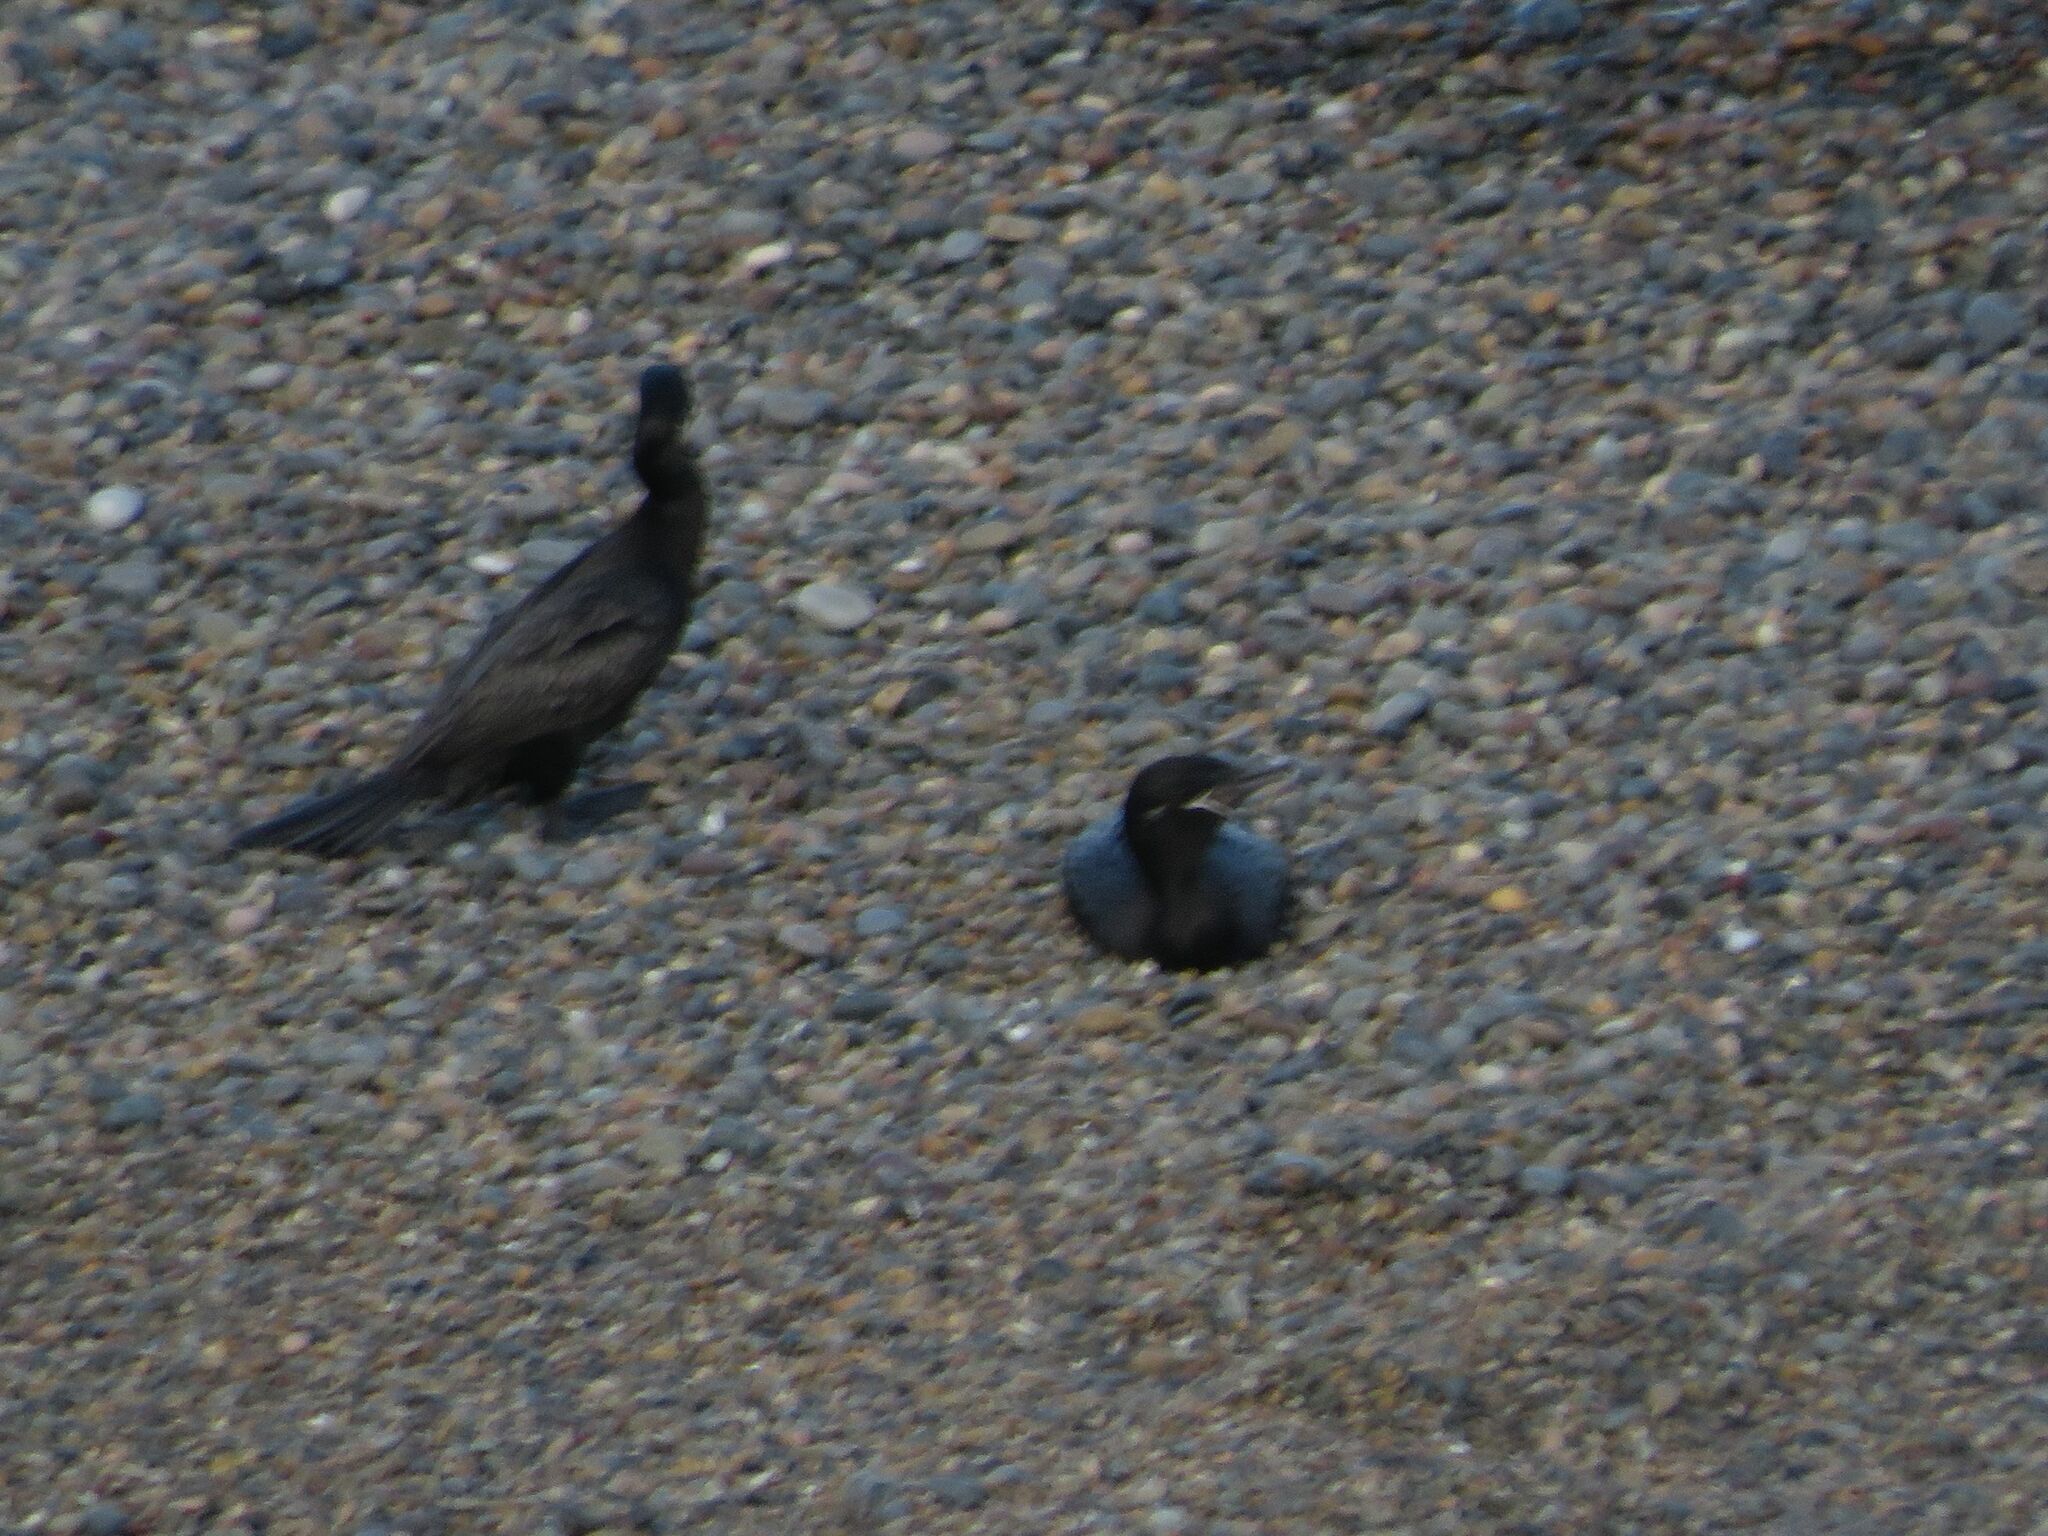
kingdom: Animalia
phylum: Chordata
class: Aves
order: Suliformes
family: Phalacrocoracidae
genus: Phalacrocorax
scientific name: Phalacrocorax brasilianus
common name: Neotropic cormorant
